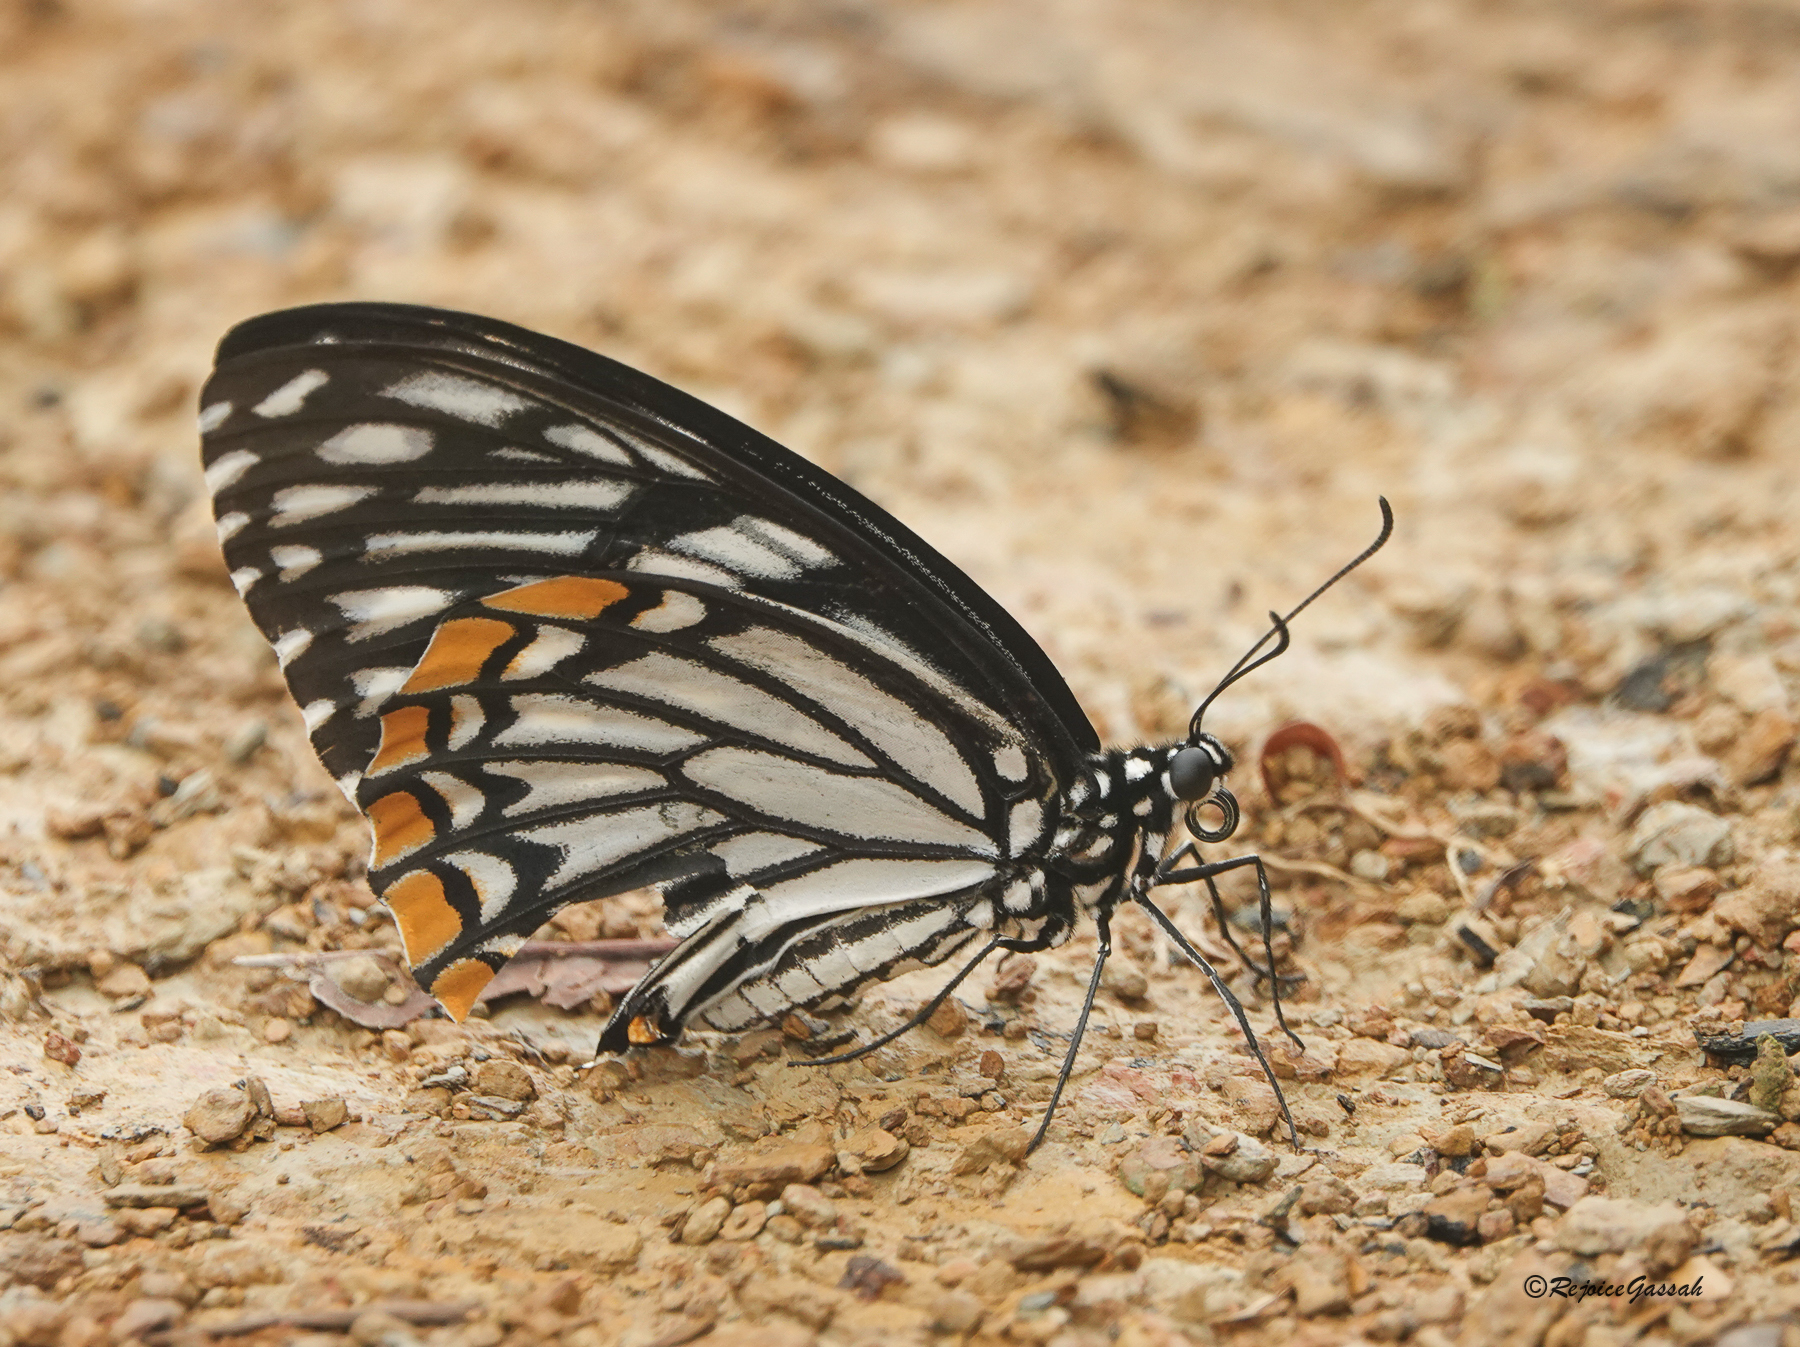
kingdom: Animalia
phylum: Arthropoda
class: Insecta
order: Lepidoptera
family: Papilionidae
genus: Chilasa
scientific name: Chilasa clytia
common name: Common mime
